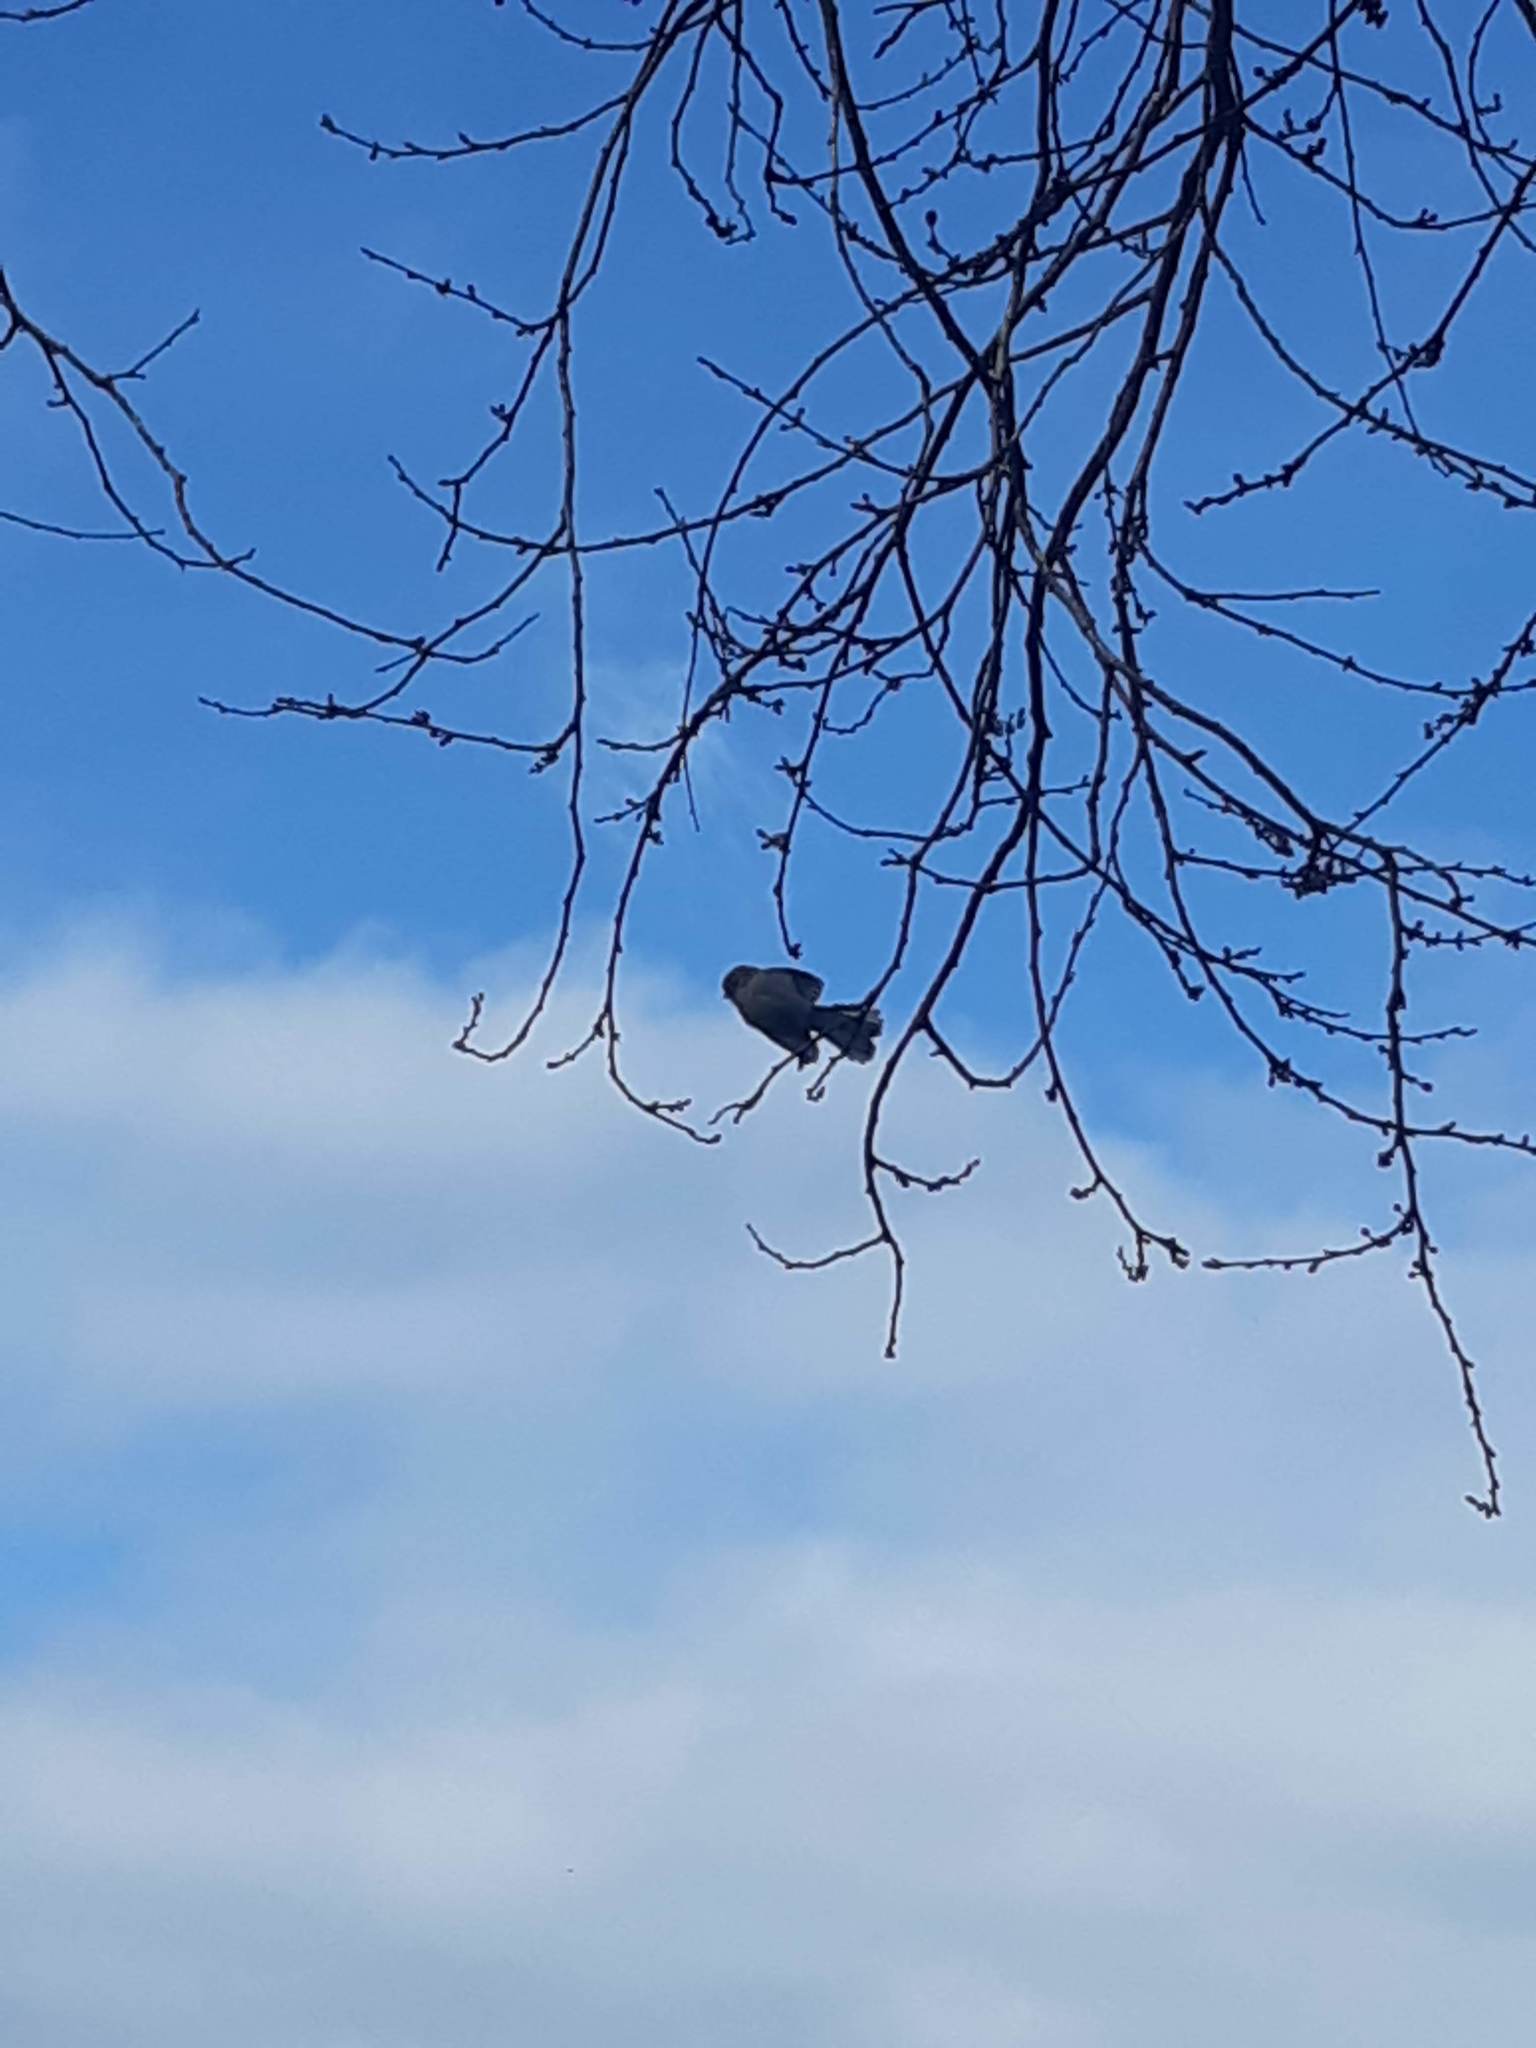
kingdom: Animalia
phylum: Chordata
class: Aves
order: Passeriformes
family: Aegithalidae
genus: Psaltriparus
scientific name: Psaltriparus minimus
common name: American bushtit
